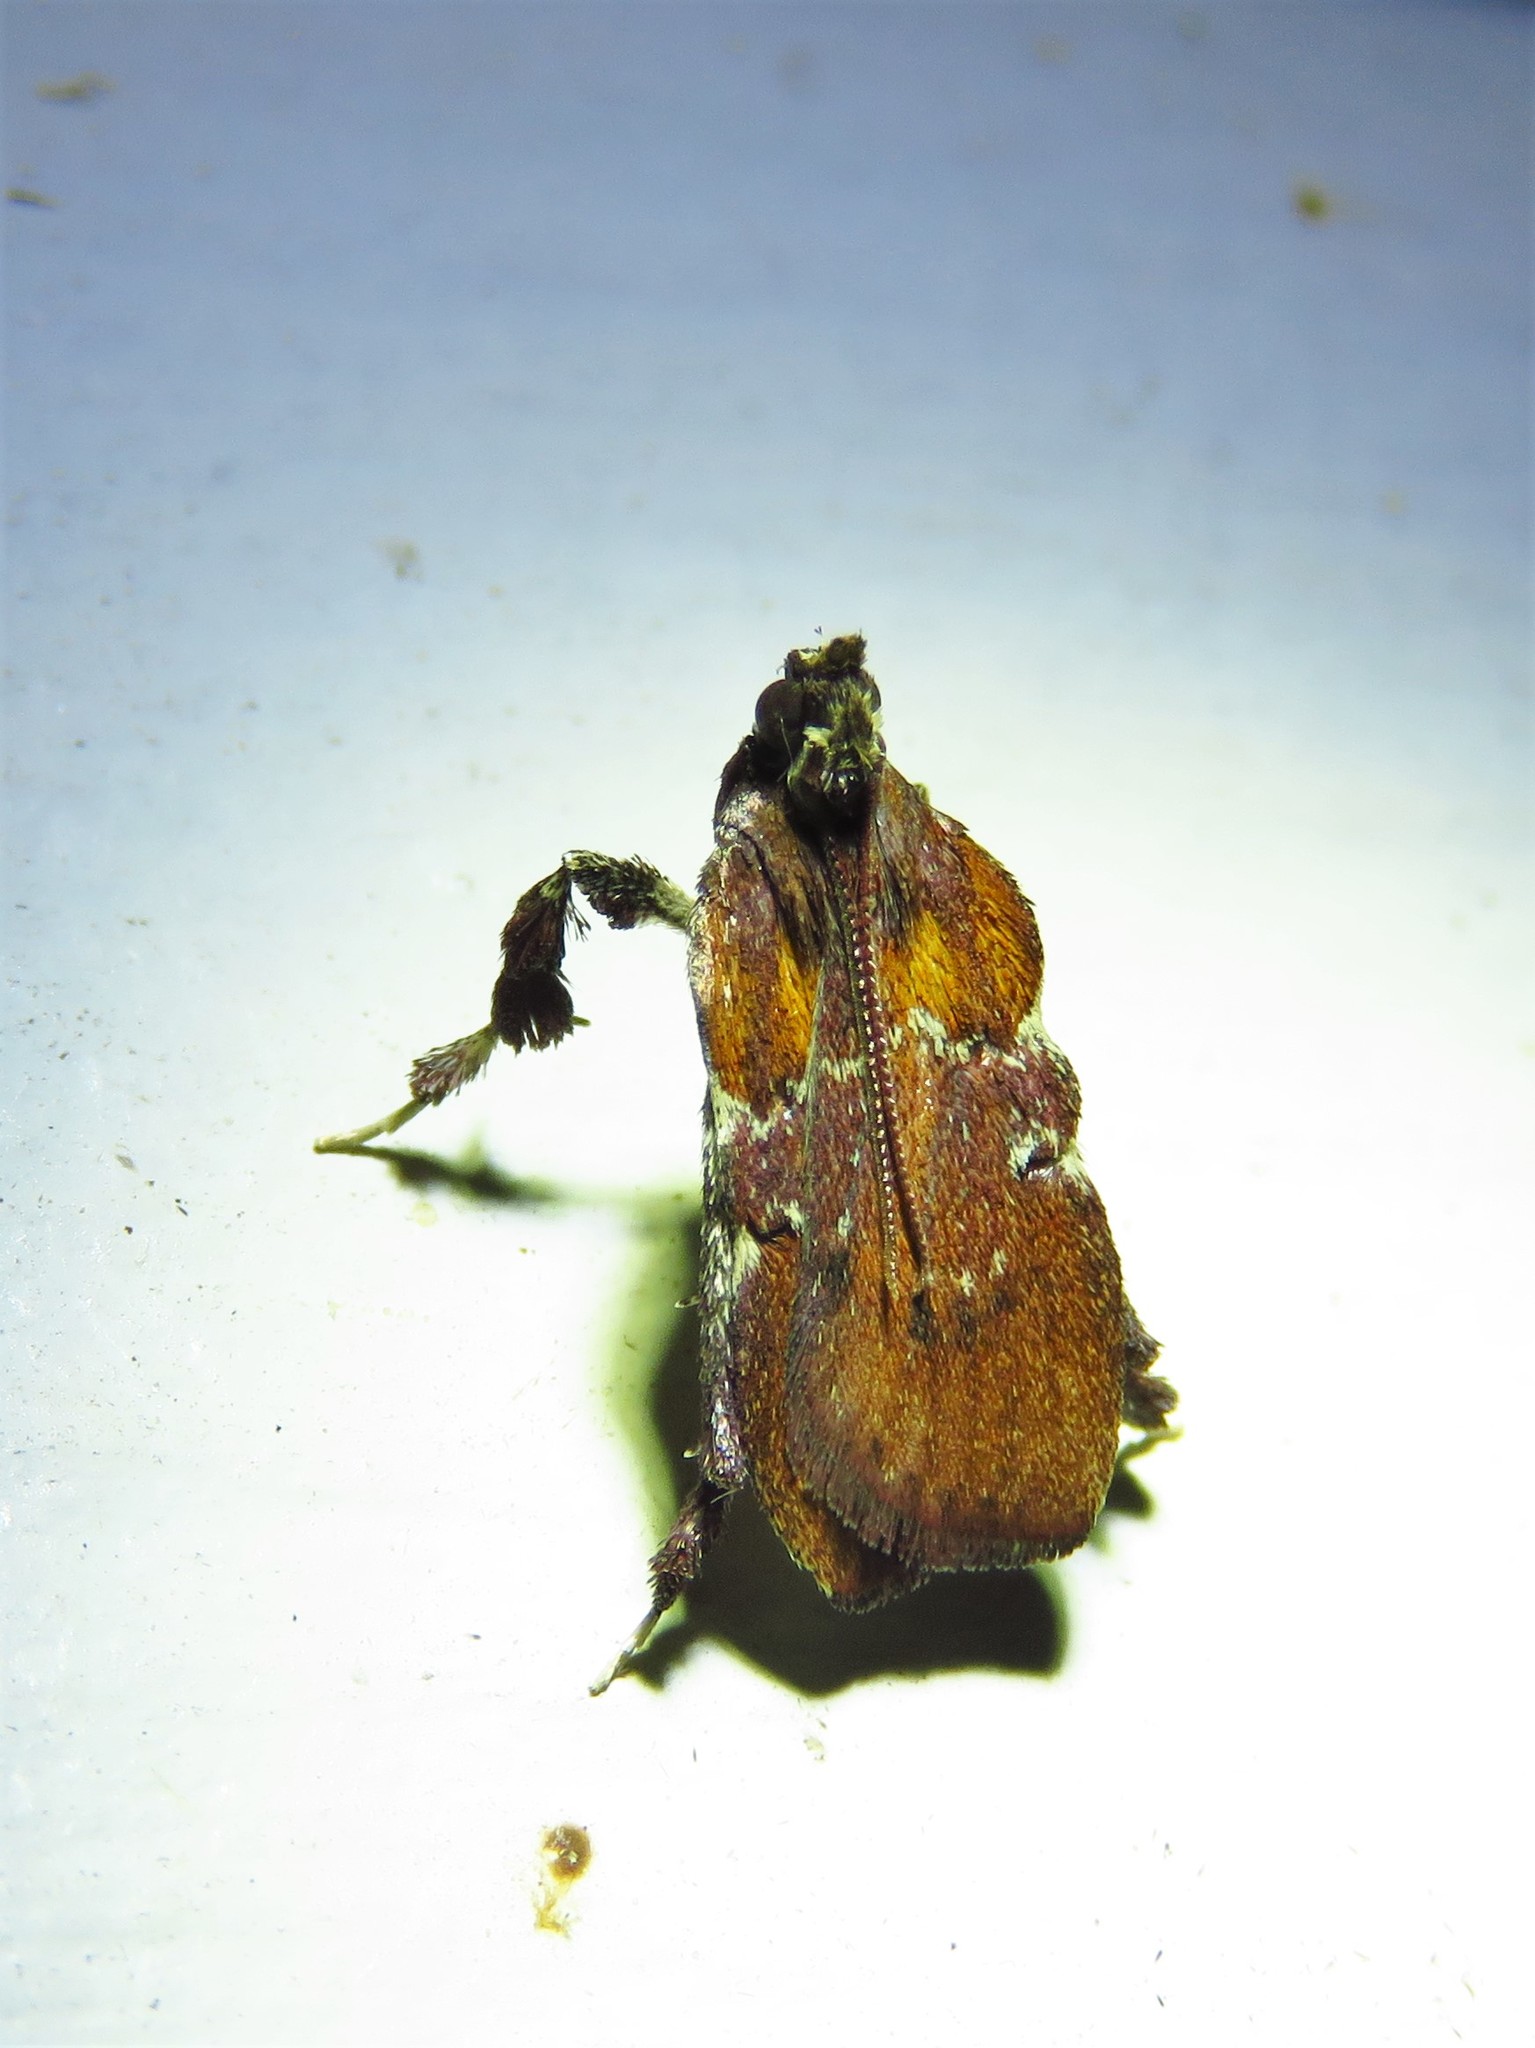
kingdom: Animalia
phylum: Arthropoda
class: Insecta
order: Lepidoptera
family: Pyralidae
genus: Galasa
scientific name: Galasa nigrinodis
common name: Boxwood leaftier moth
